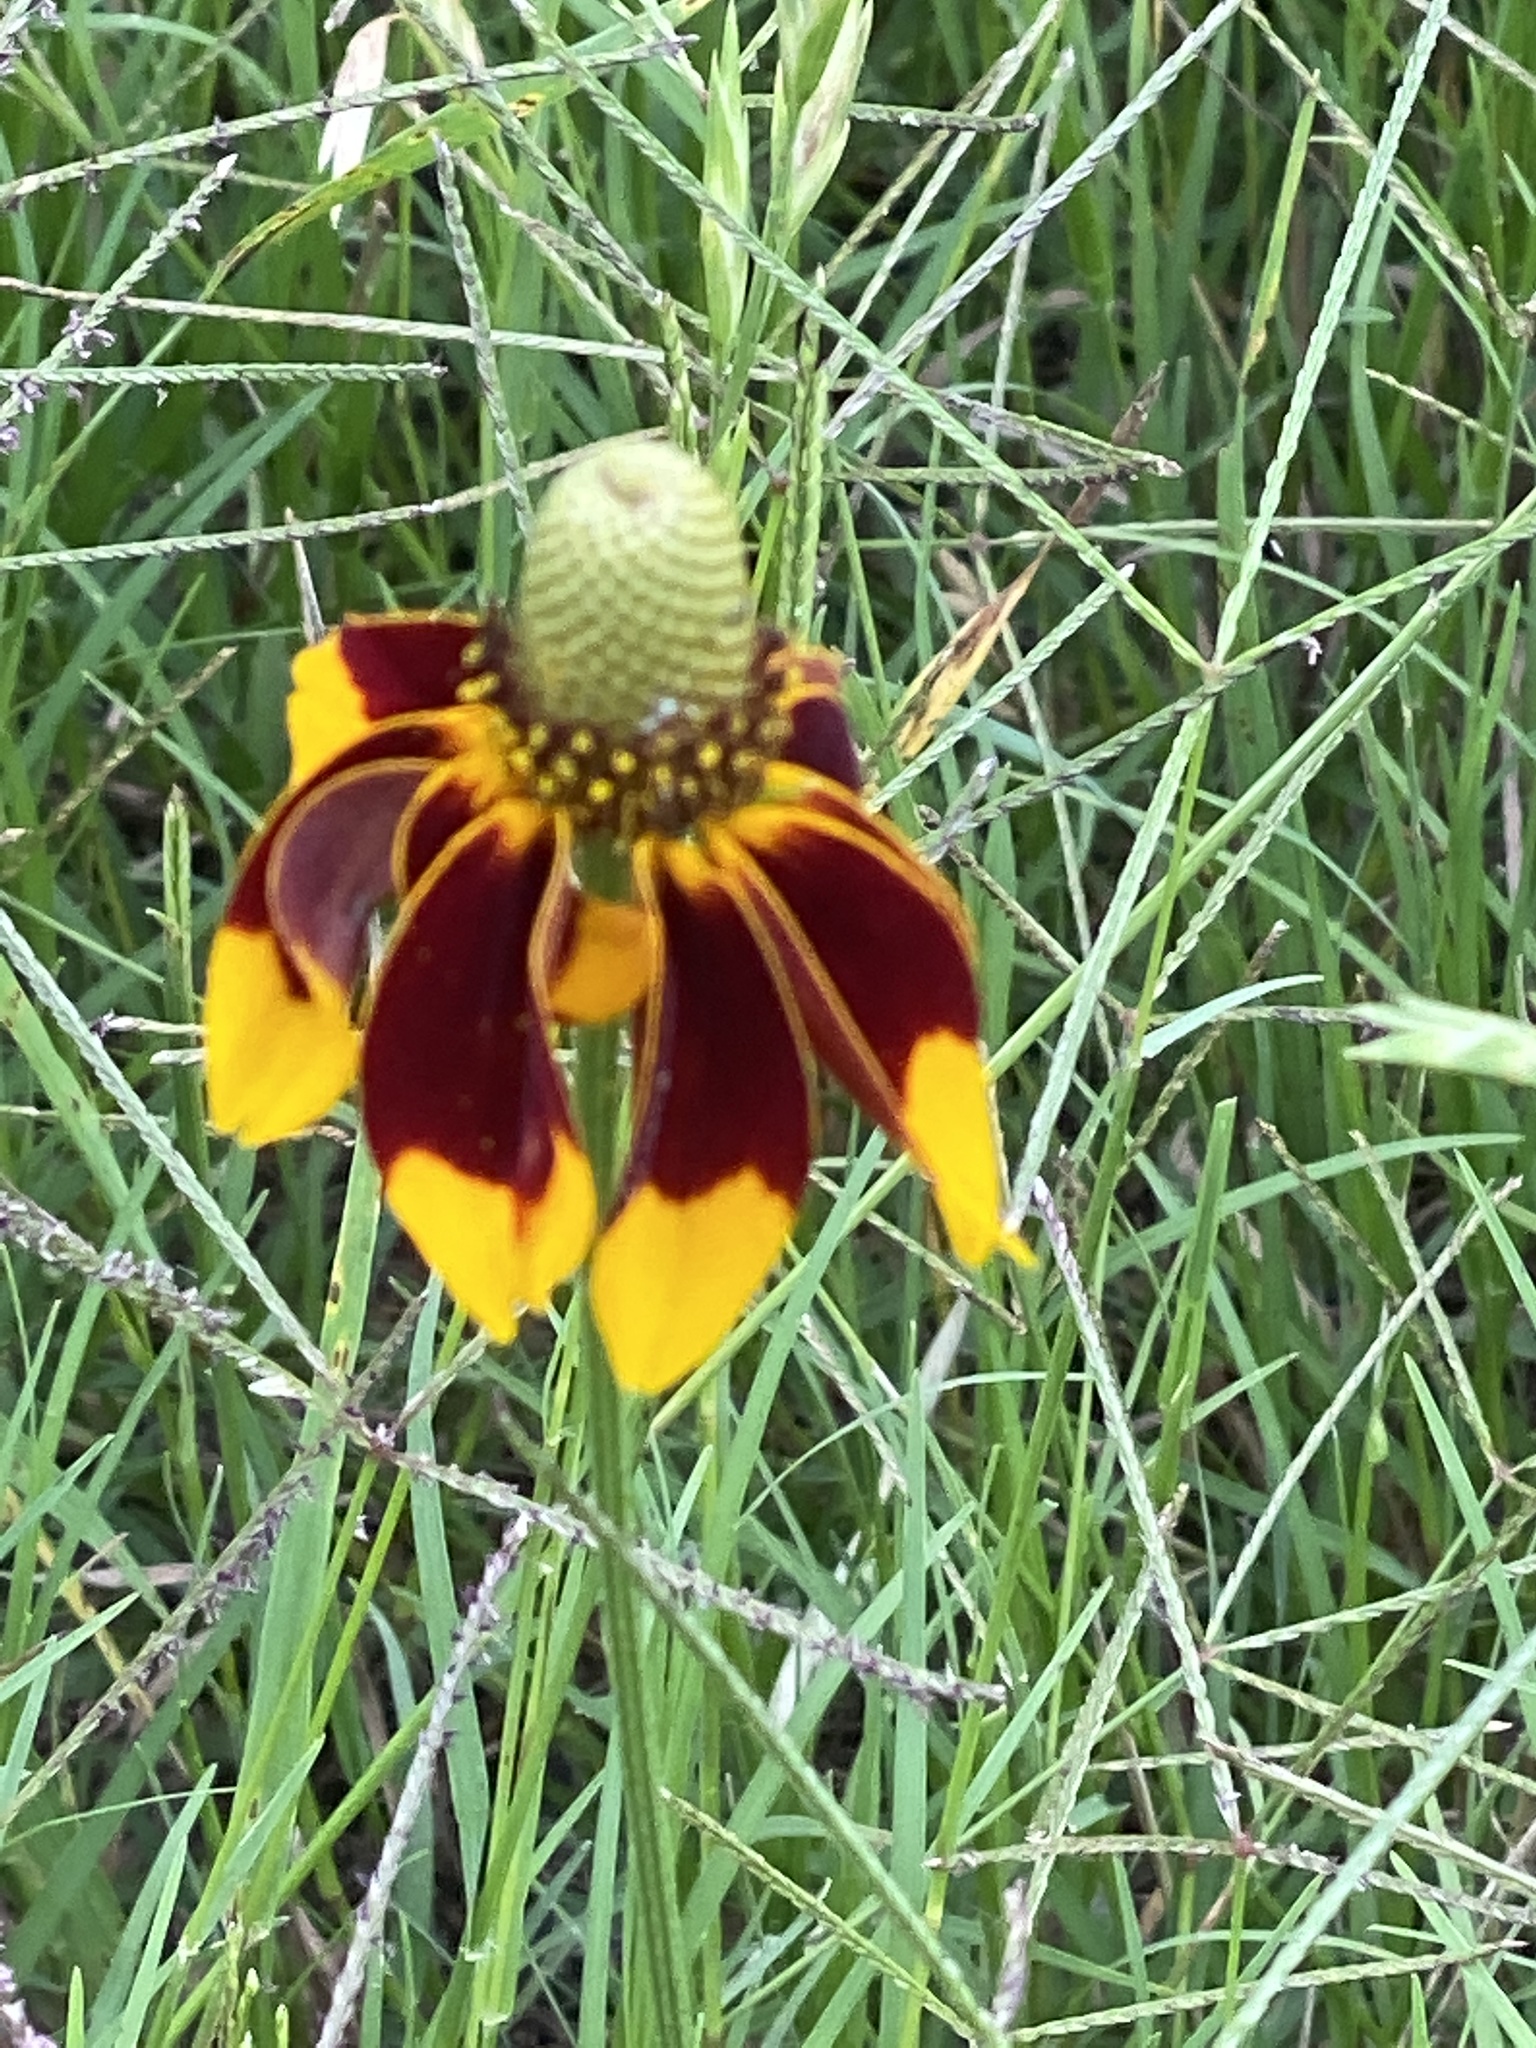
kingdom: Plantae
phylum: Tracheophyta
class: Magnoliopsida
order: Asterales
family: Asteraceae
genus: Ratibida
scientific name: Ratibida columnifera
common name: Prairie coneflower
